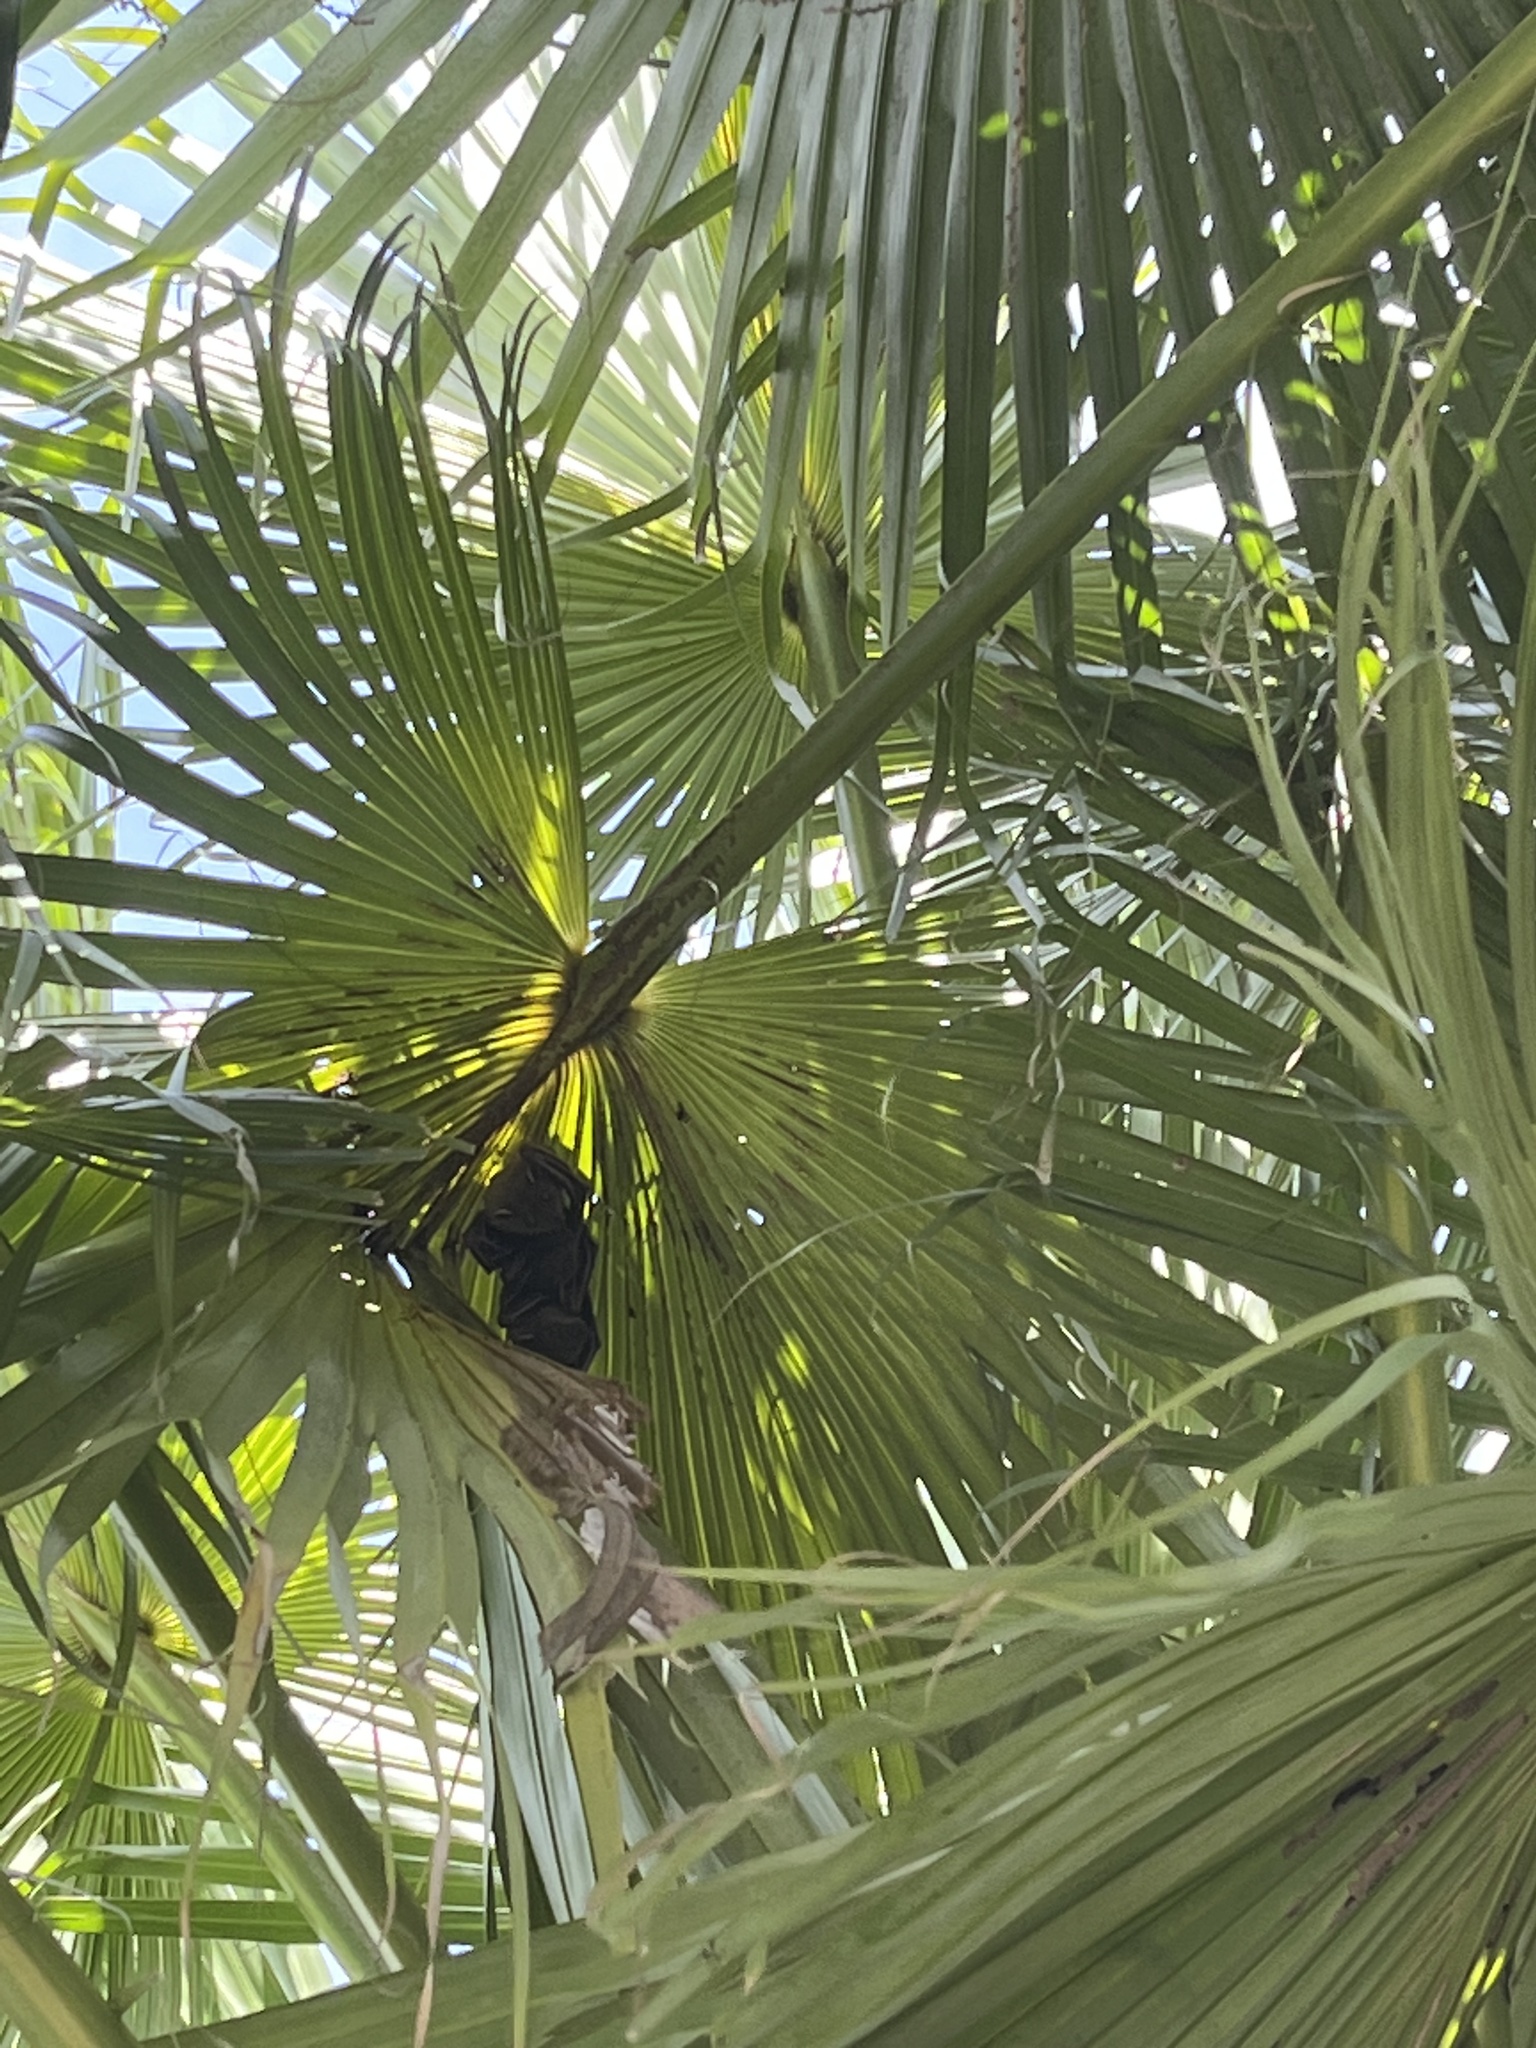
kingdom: Animalia
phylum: Chordata
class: Mammalia
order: Chiroptera
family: Pteropodidae
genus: Cynopterus
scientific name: Cynopterus sphinx
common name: Greater short-nosed fruit bat
